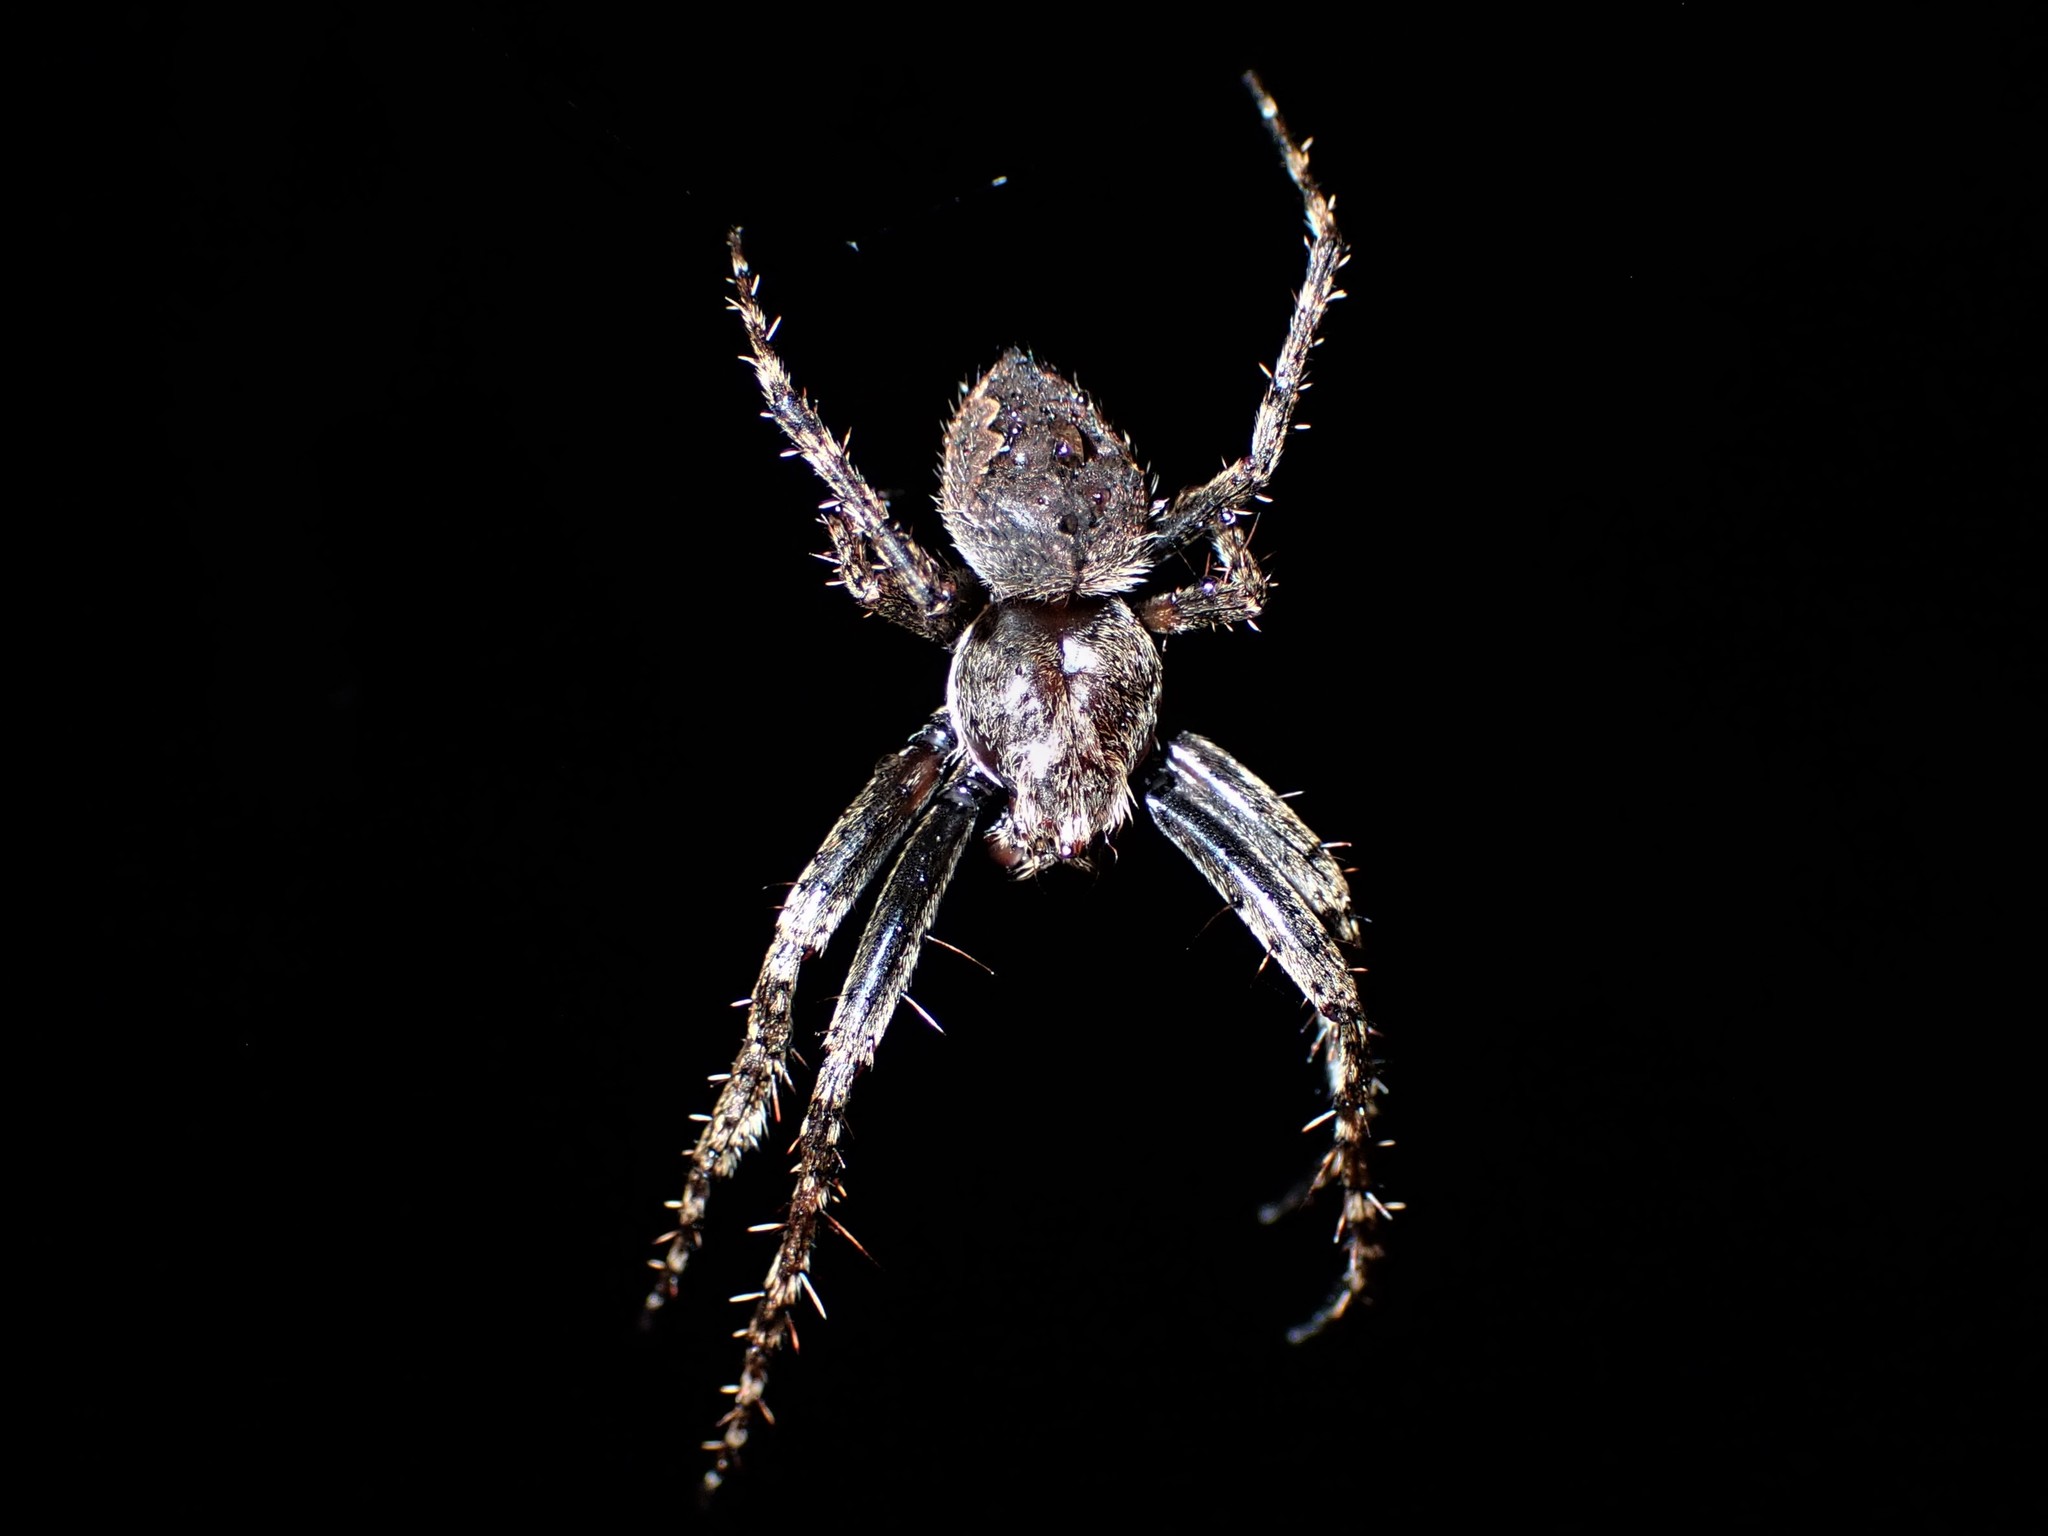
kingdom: Animalia
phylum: Arthropoda
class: Arachnida
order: Araneae
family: Araneidae
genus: Eriophora
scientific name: Eriophora pustulosa
